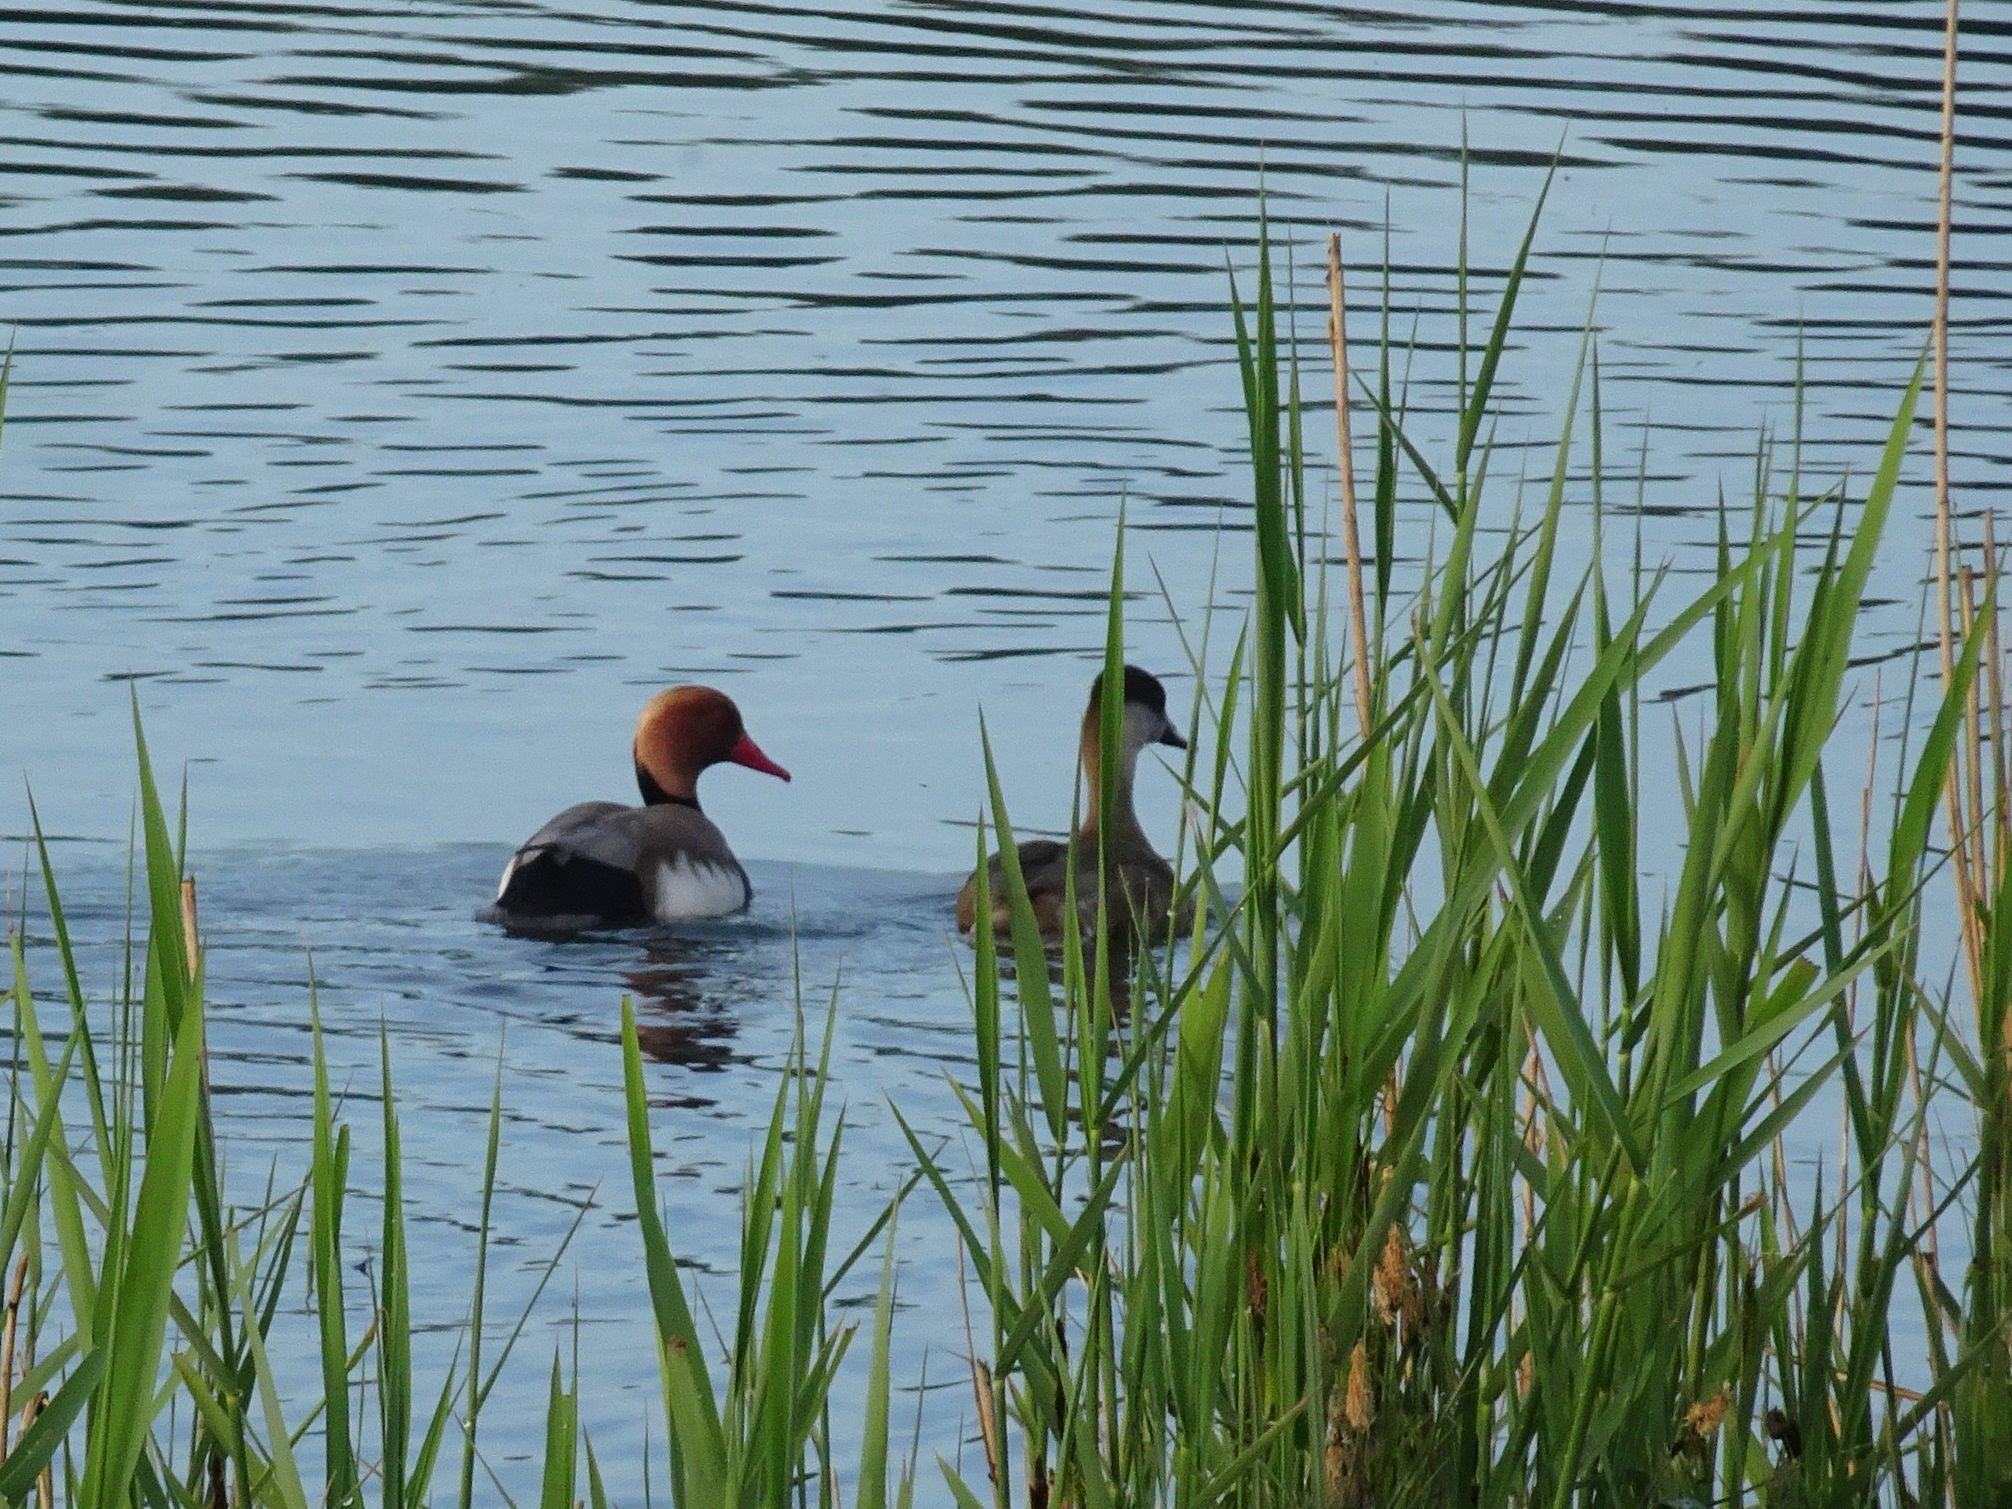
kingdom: Animalia
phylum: Chordata
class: Aves
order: Anseriformes
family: Anatidae
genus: Netta
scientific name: Netta rufina
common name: Red-crested pochard
